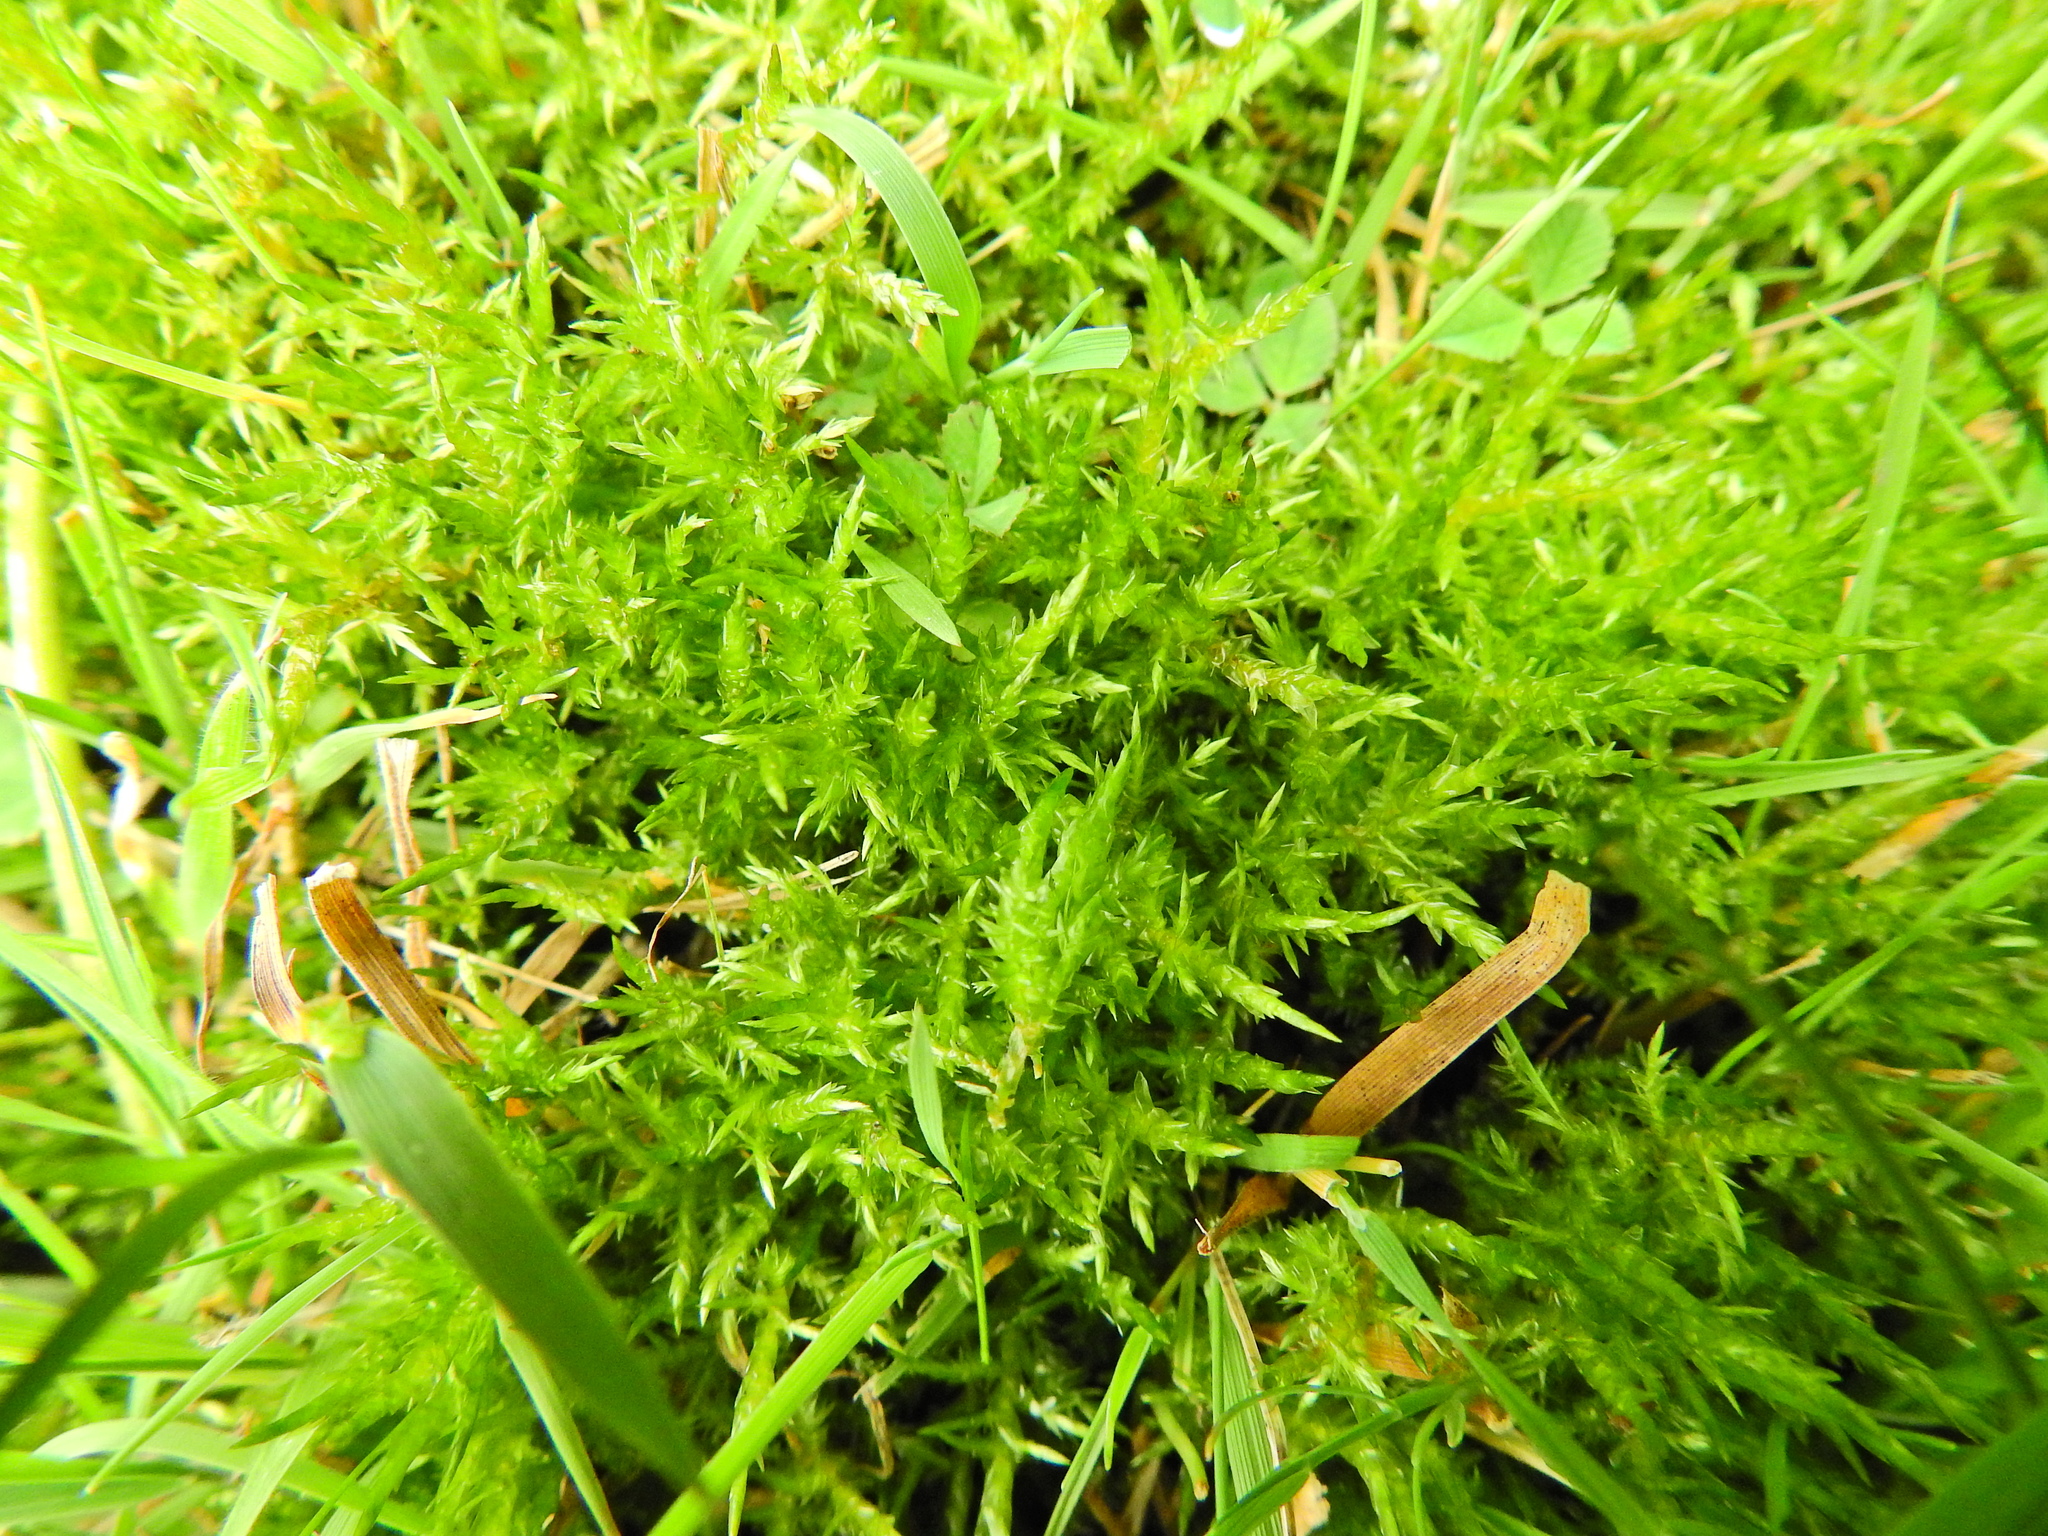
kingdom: Plantae
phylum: Bryophyta
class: Bryopsida
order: Hypnales
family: Pylaisiaceae
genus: Calliergonella
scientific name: Calliergonella cuspidata
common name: Common large wetland moss
